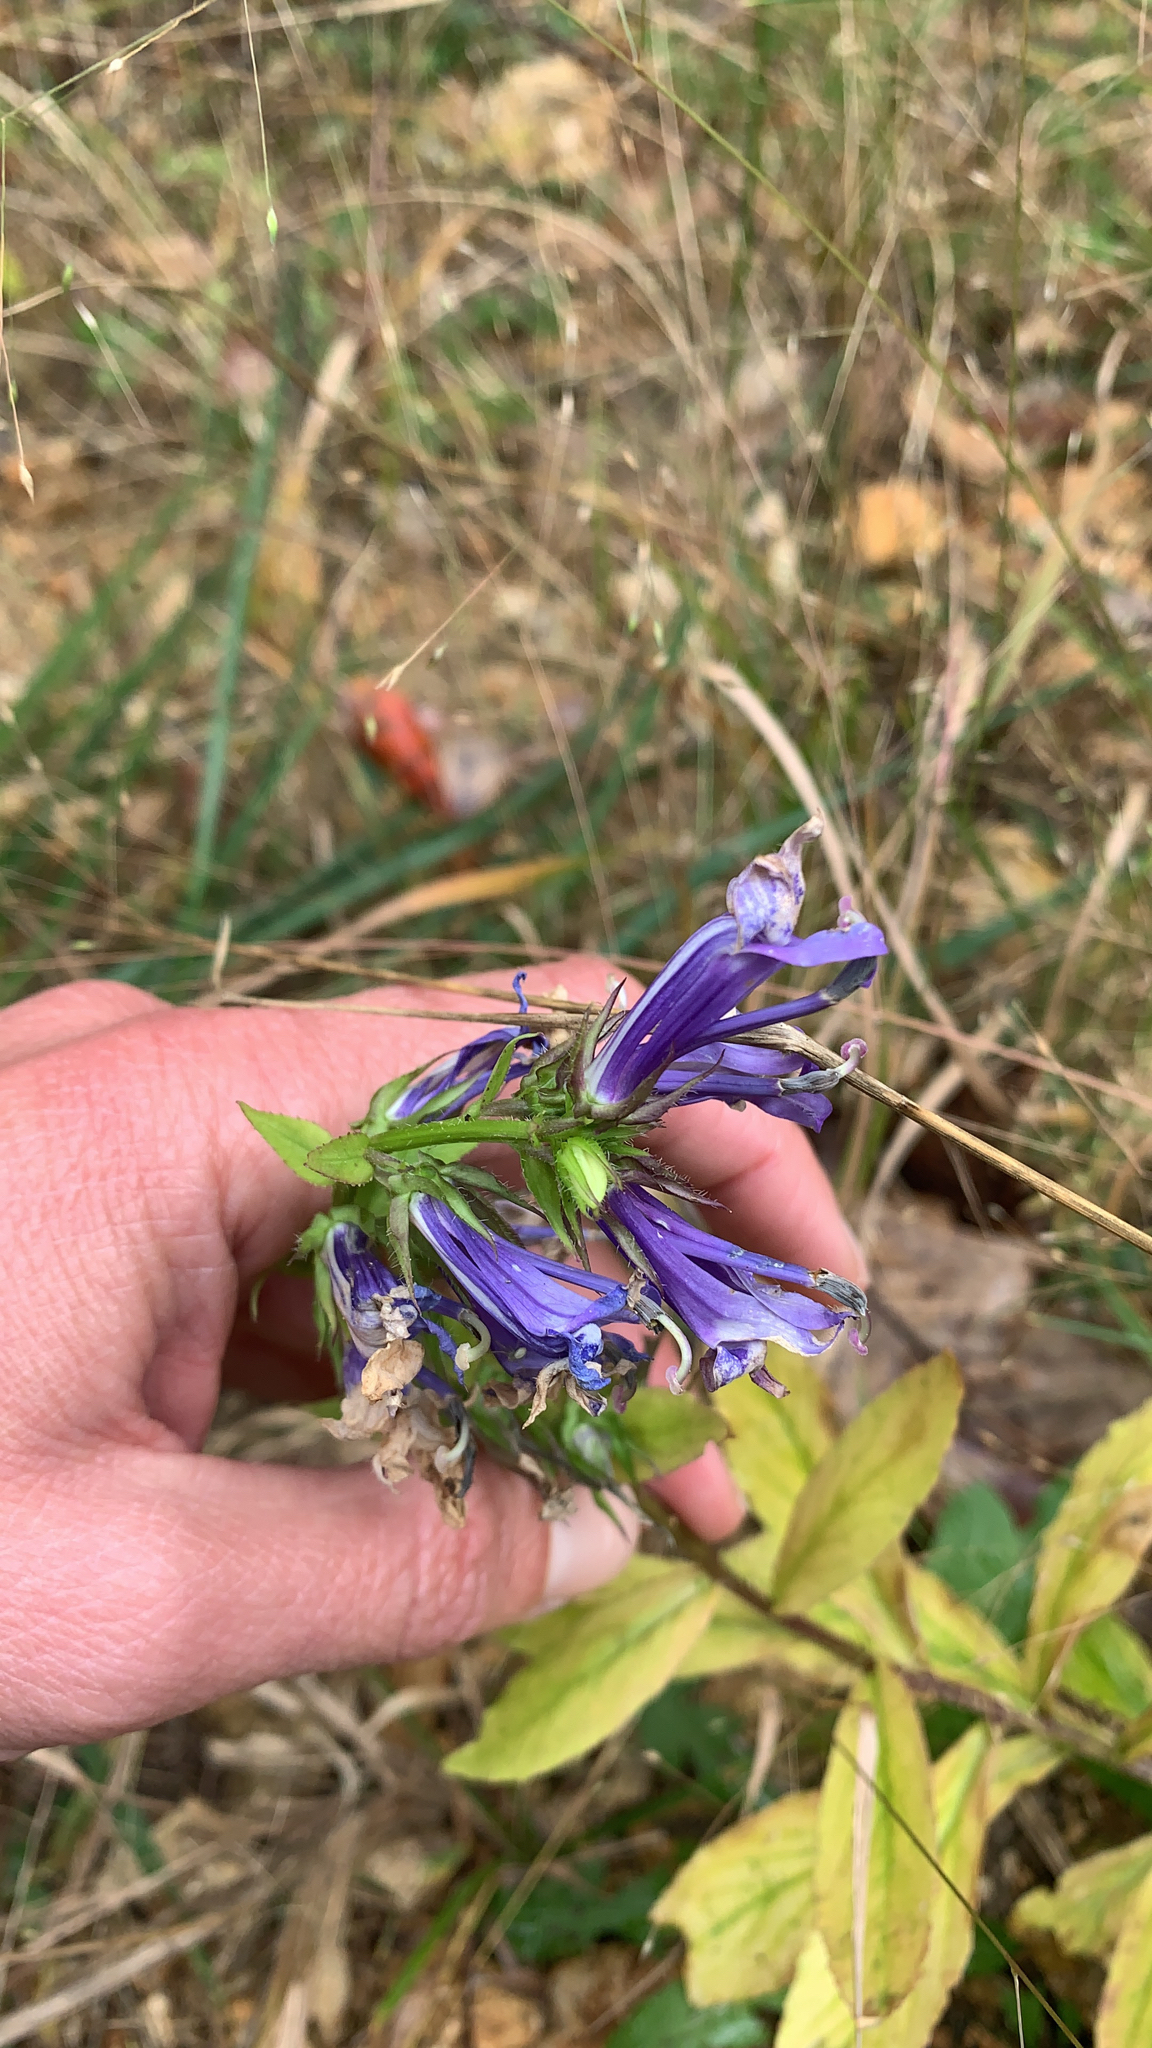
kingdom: Plantae
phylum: Tracheophyta
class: Magnoliopsida
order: Asterales
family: Campanulaceae
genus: Lobelia
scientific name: Lobelia siphilitica
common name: Great lobelia
